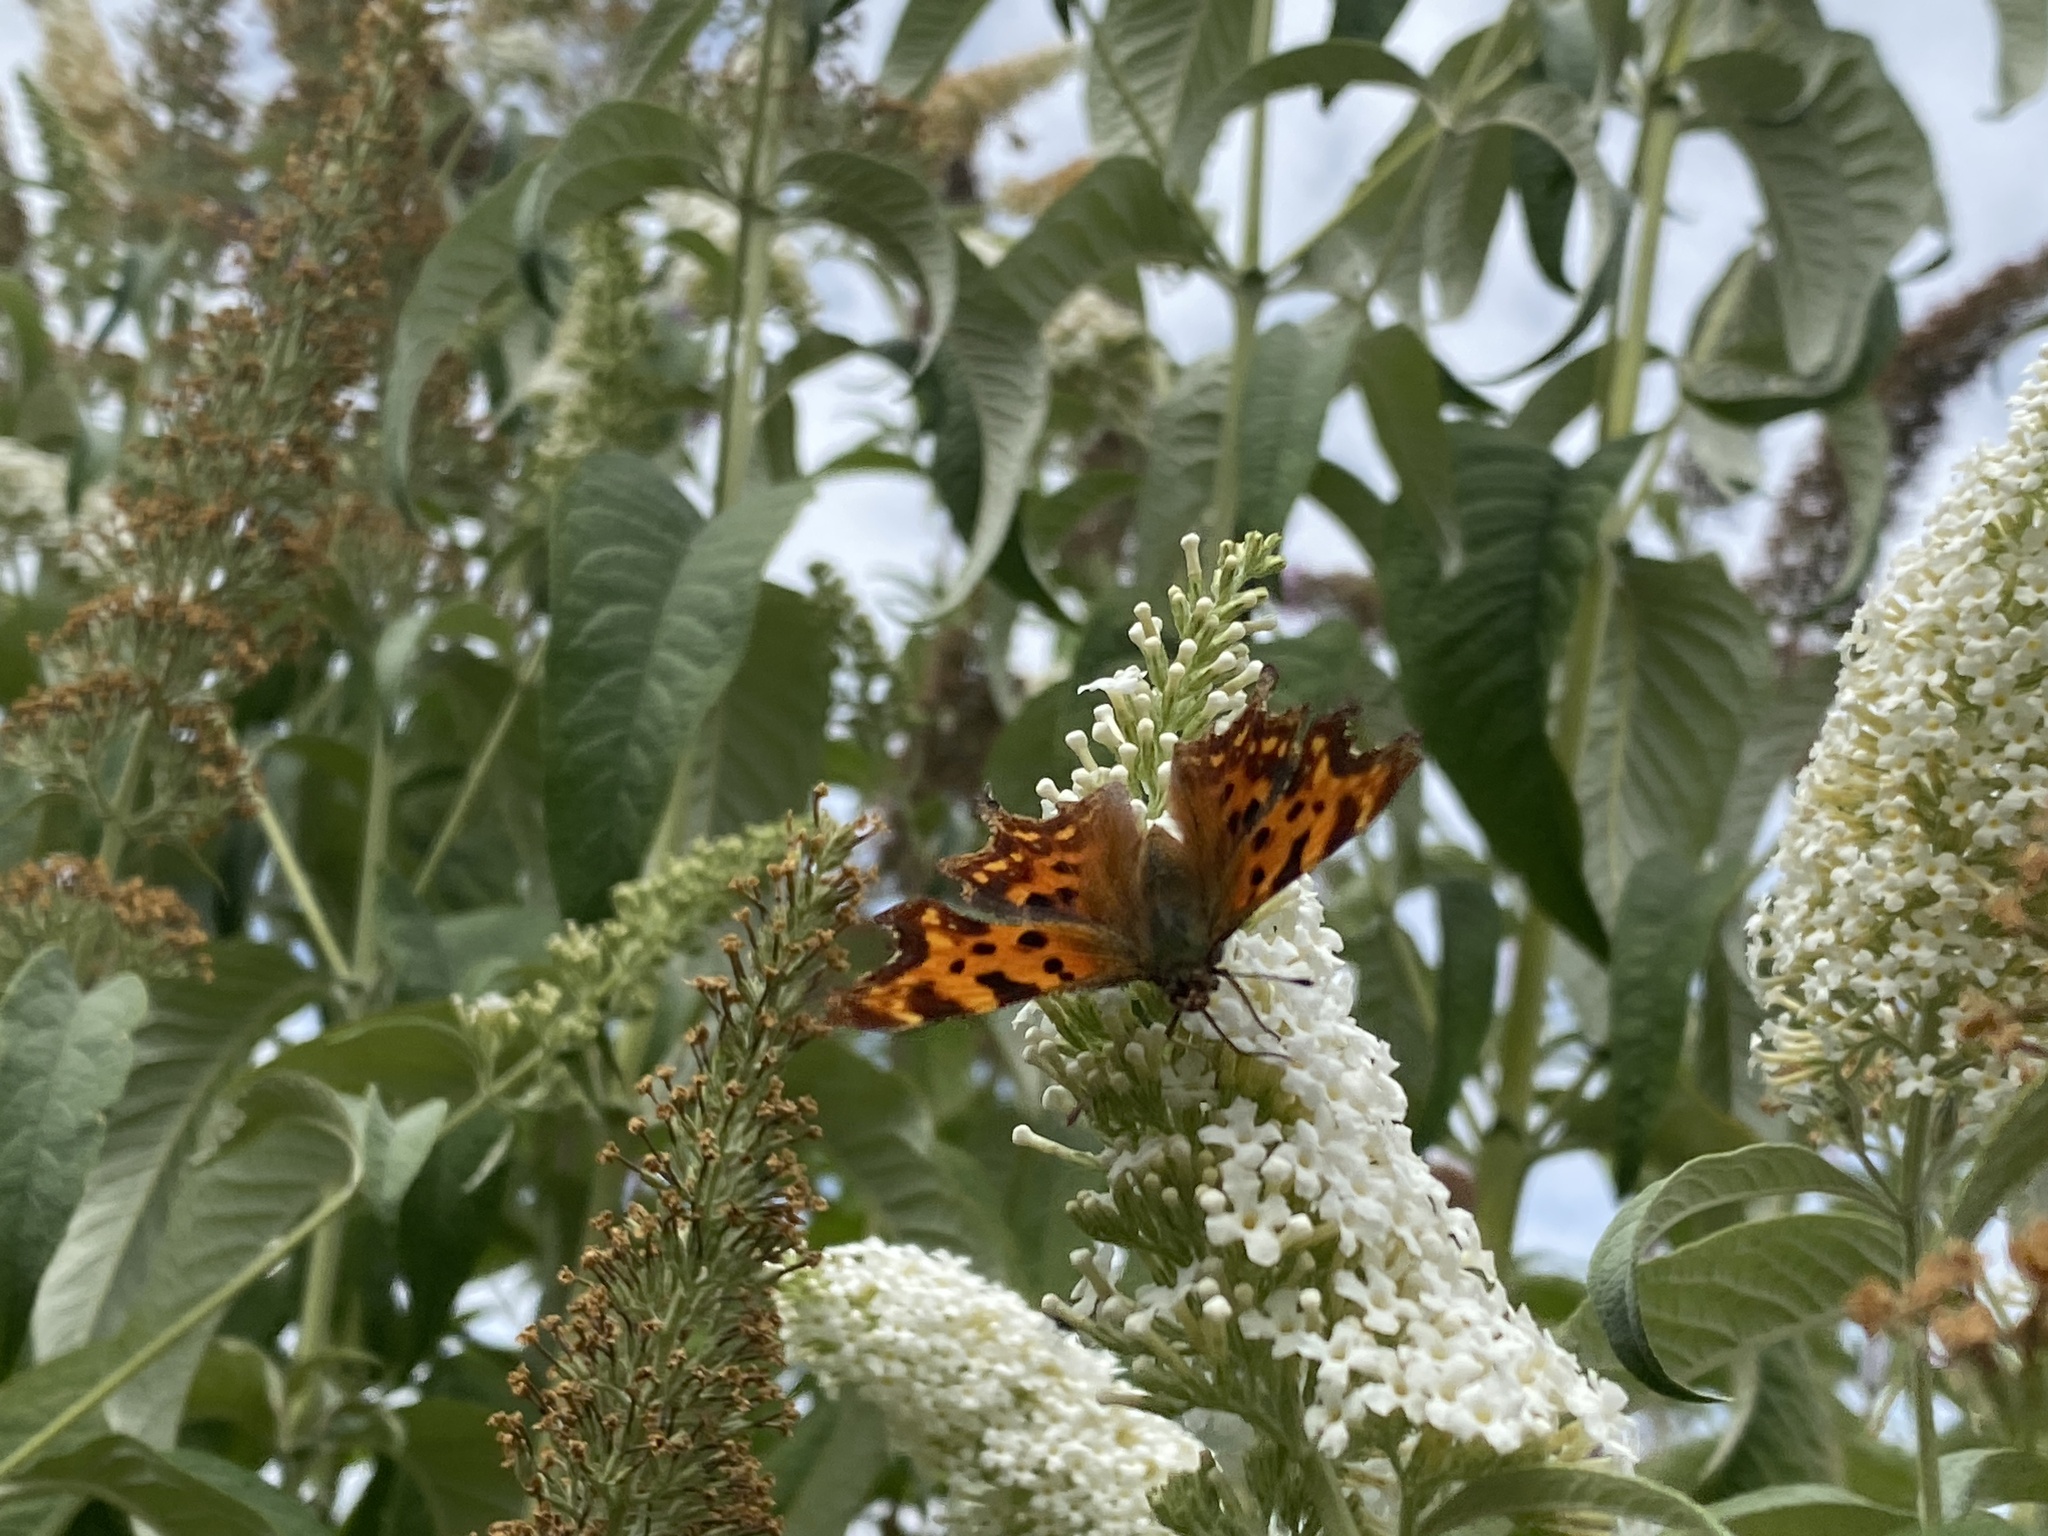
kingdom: Animalia
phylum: Arthropoda
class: Insecta
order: Lepidoptera
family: Nymphalidae
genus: Polygonia
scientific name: Polygonia c-album
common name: Comma
